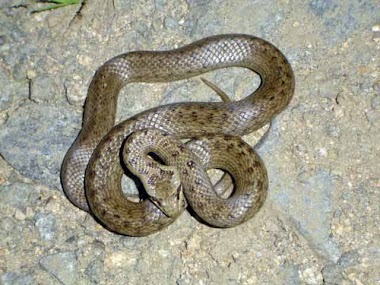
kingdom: Animalia
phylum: Chordata
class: Squamata
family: Colubridae
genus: Coronella
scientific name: Coronella austriaca
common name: Smooth snake
